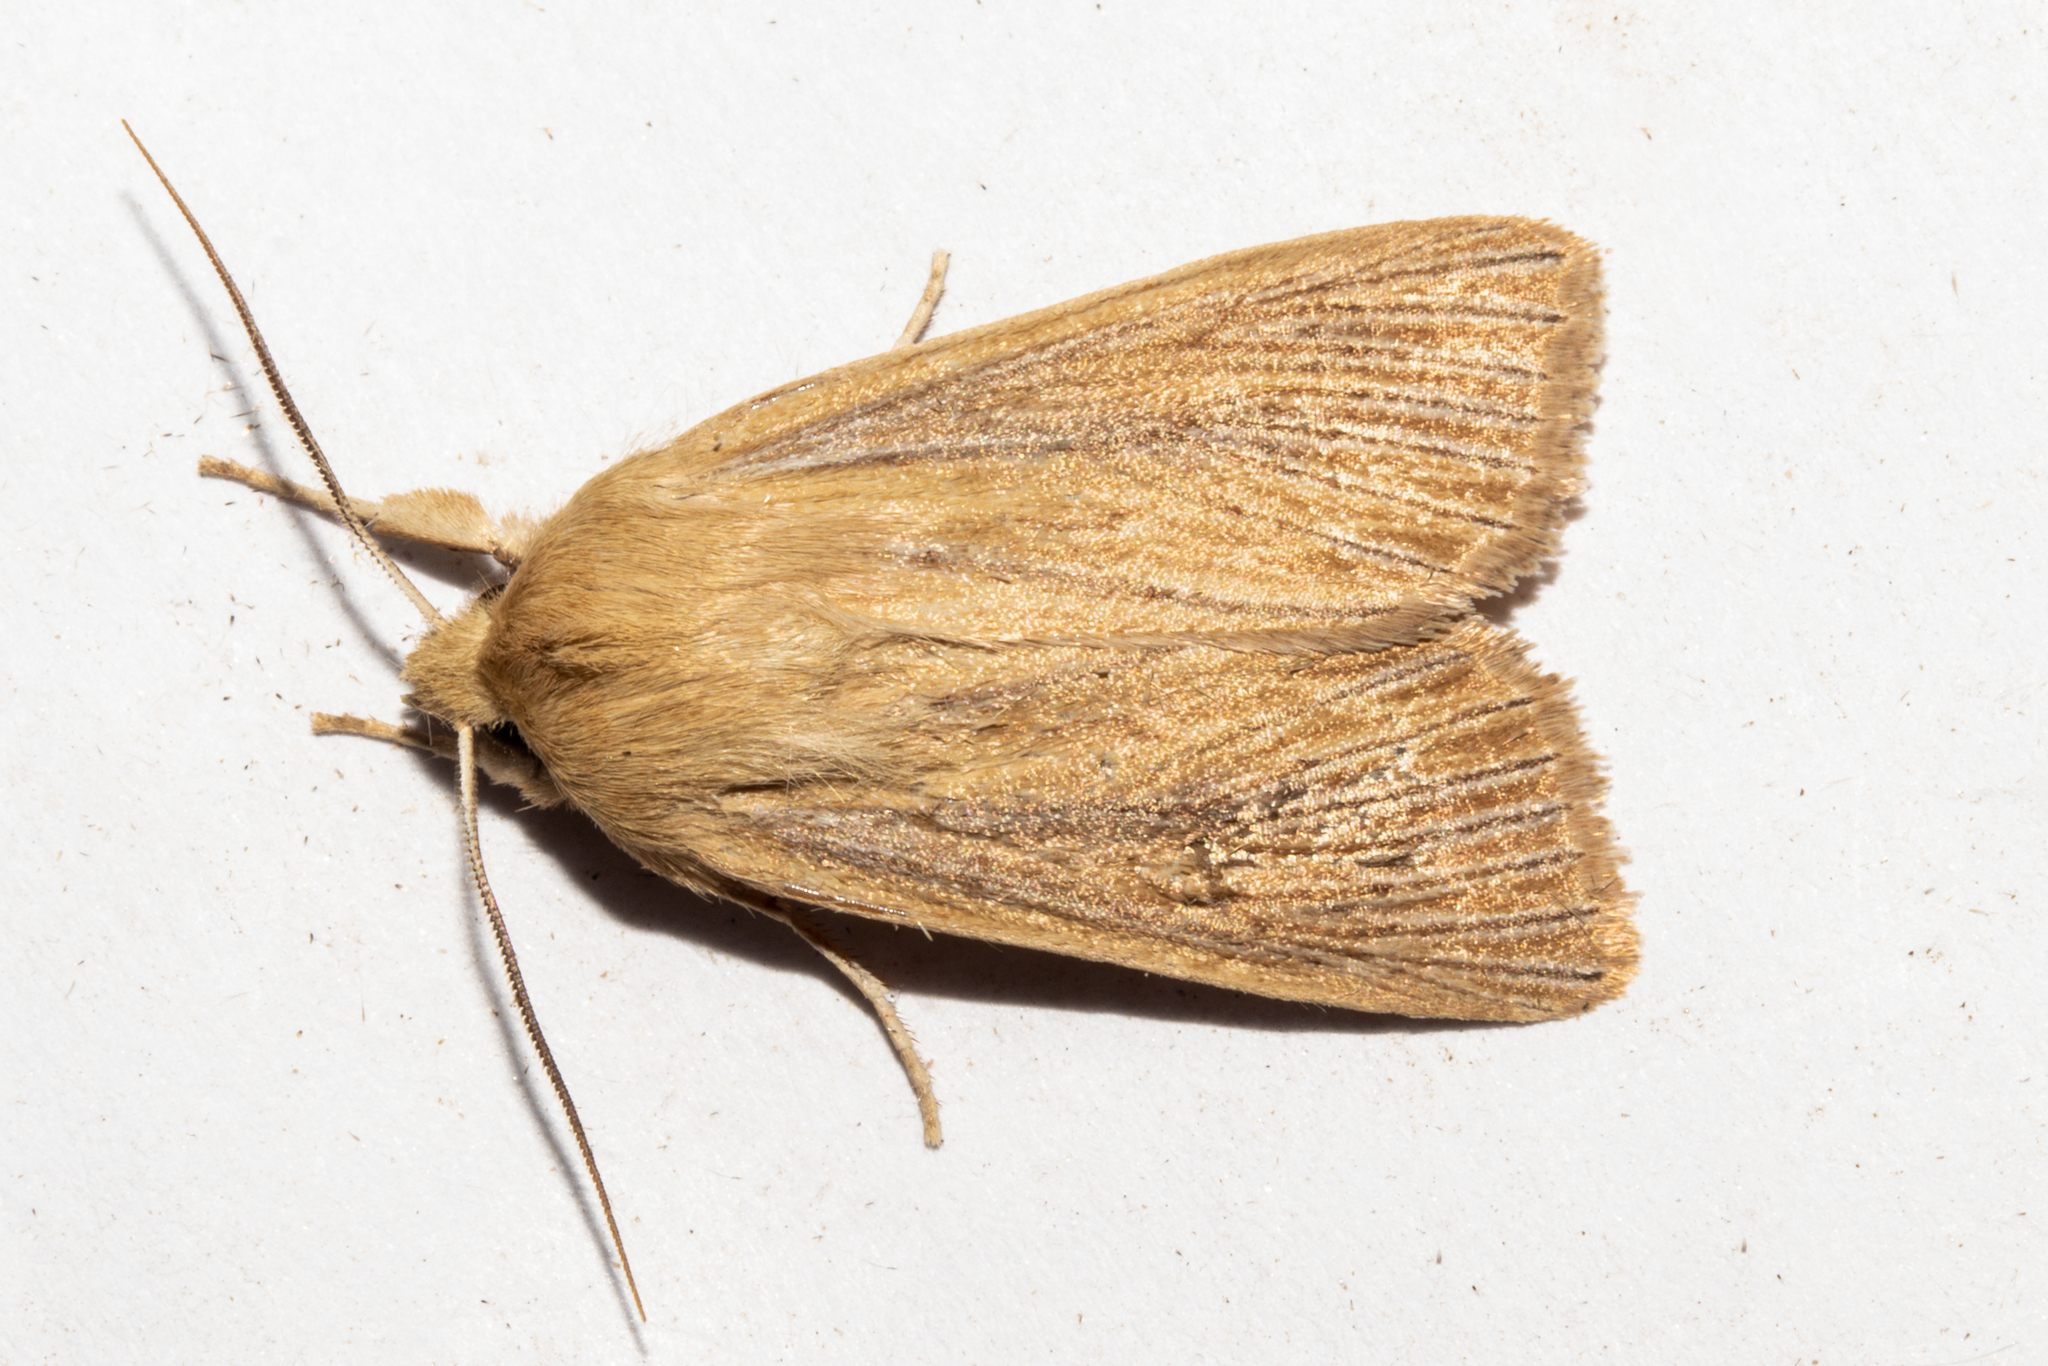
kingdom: Animalia
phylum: Arthropoda
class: Insecta
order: Lepidoptera
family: Noctuidae
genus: Ichneutica
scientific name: Ichneutica arotis
